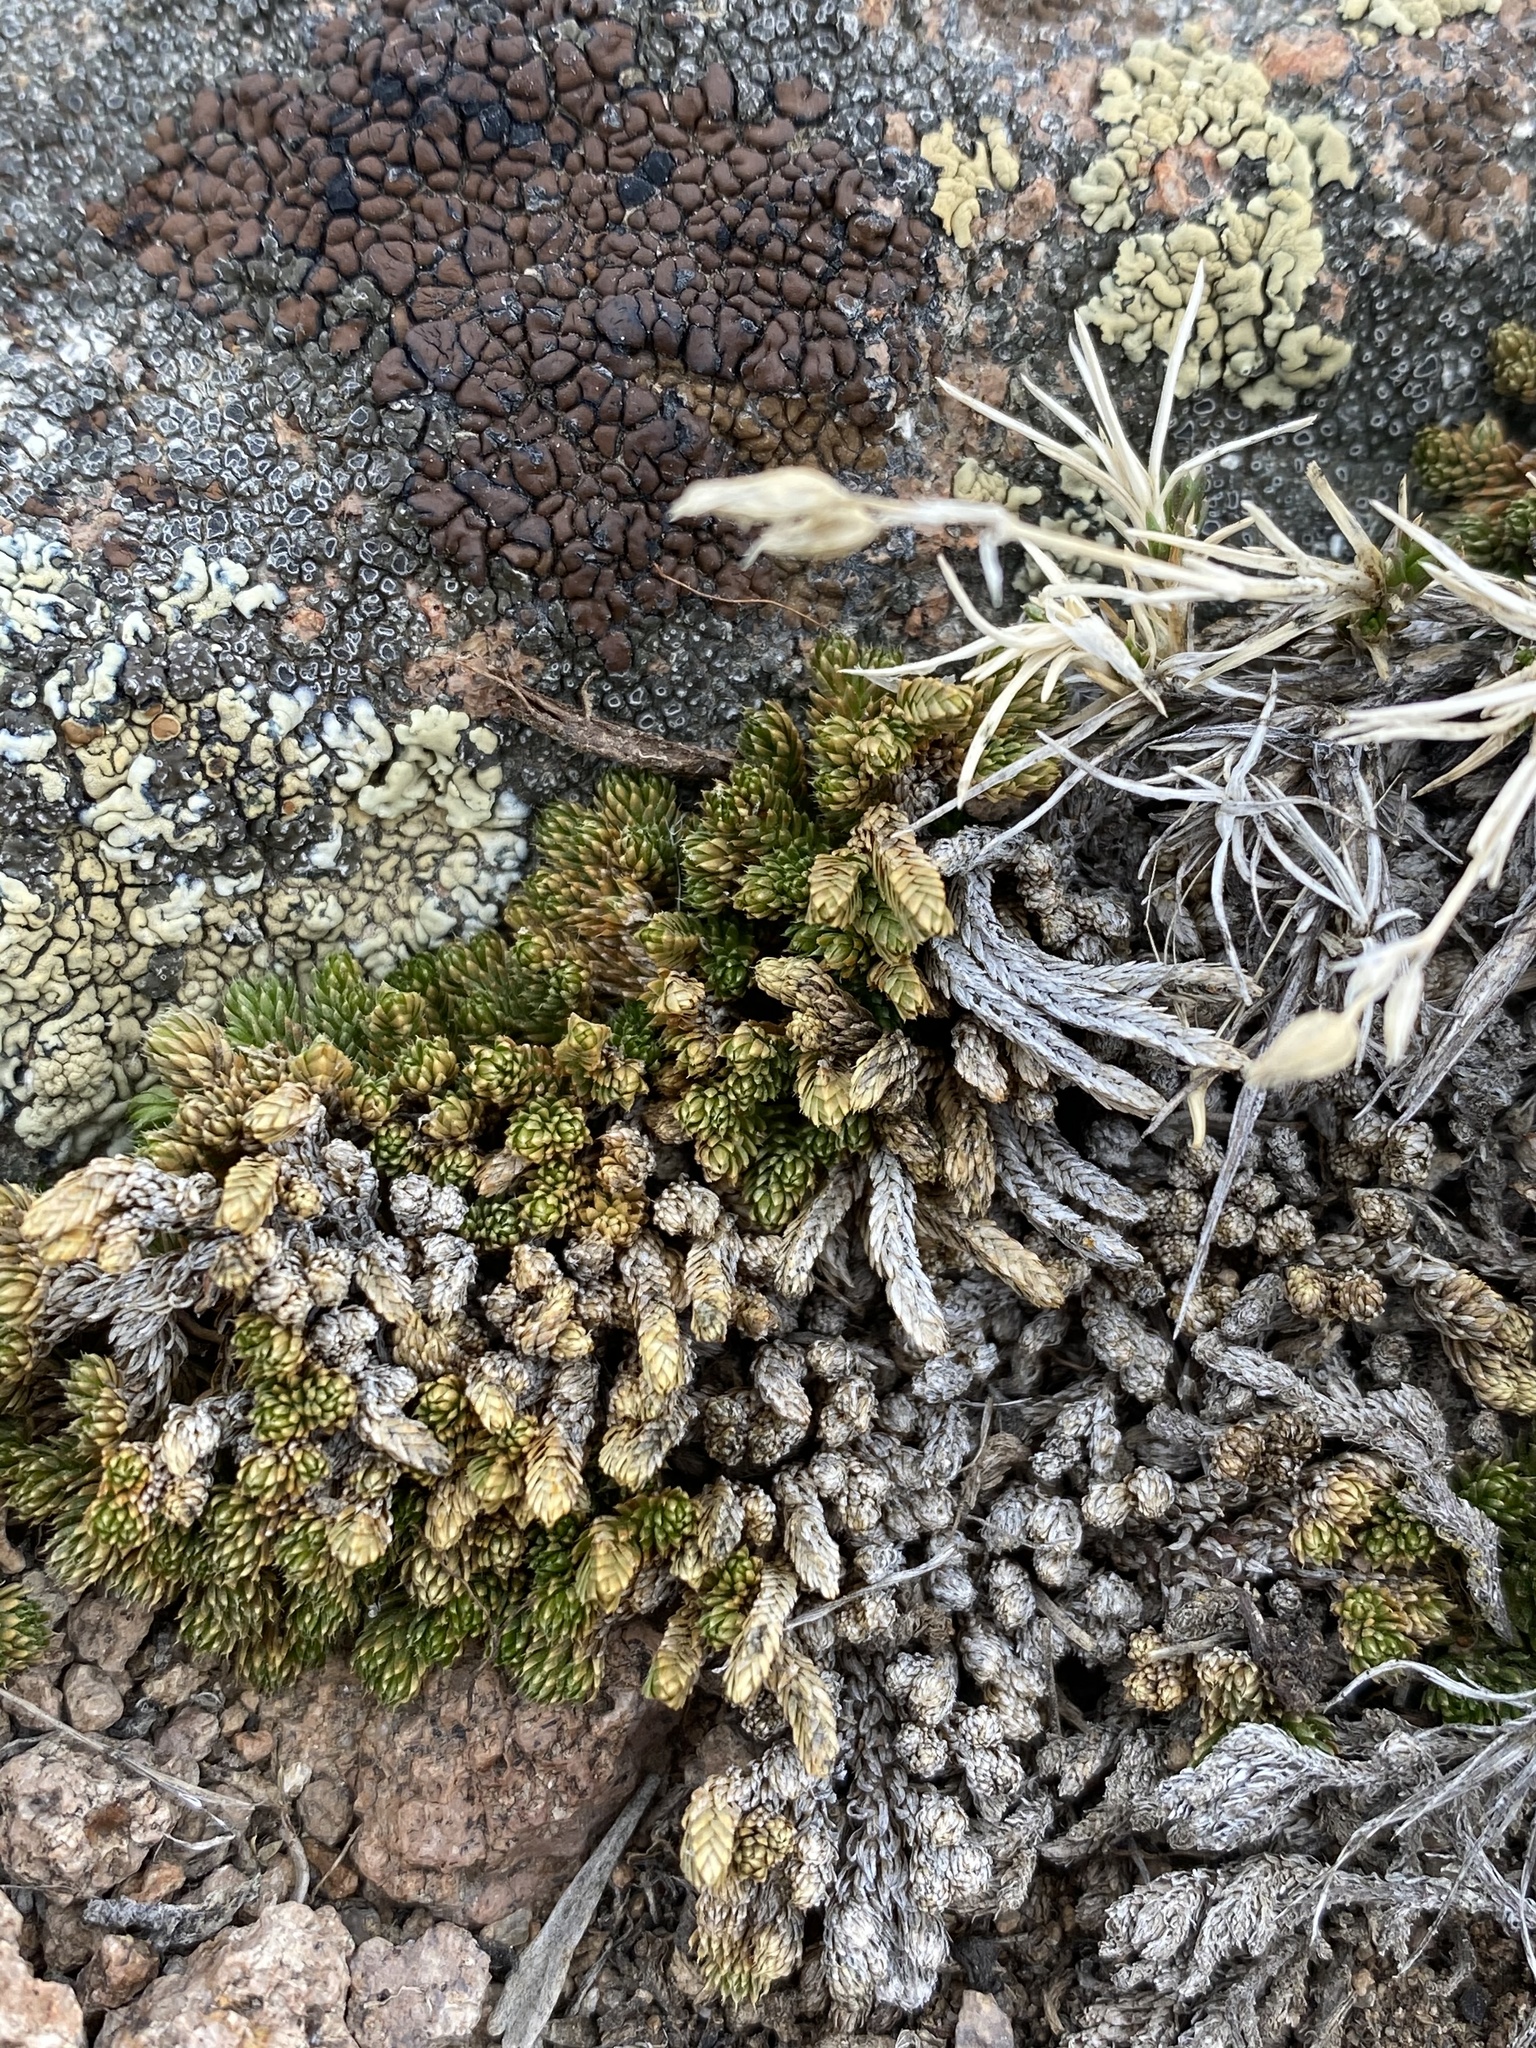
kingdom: Plantae
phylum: Tracheophyta
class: Lycopodiopsida
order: Selaginellales
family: Selaginellaceae
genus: Selaginella
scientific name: Selaginella watsonii
